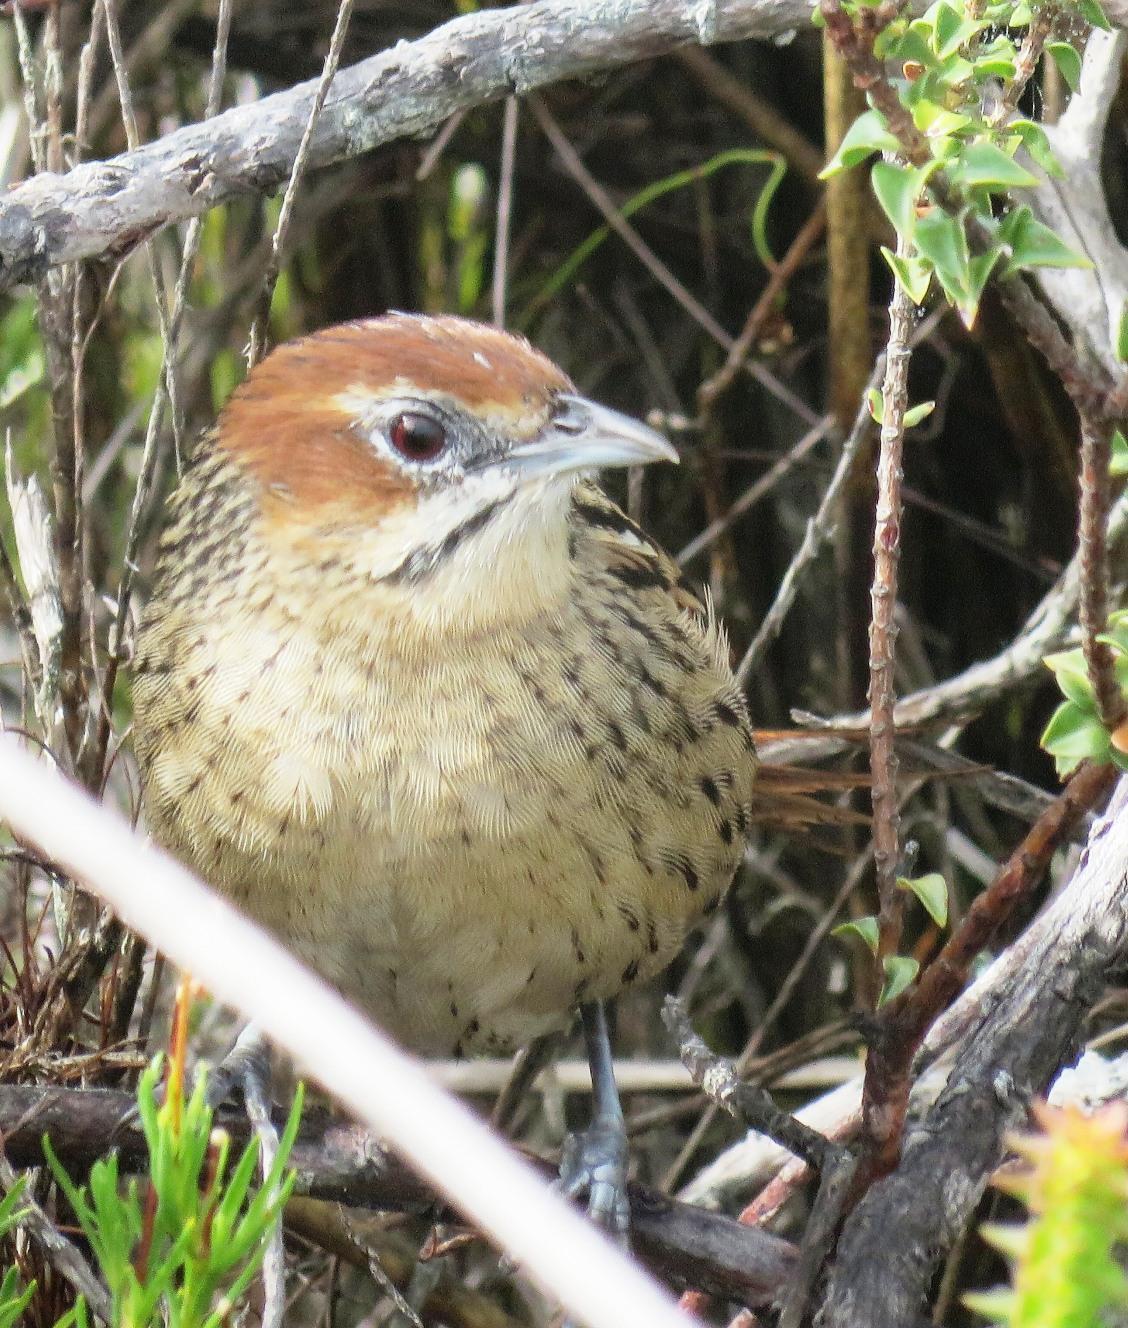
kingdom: Animalia
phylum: Chordata
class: Aves
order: Passeriformes
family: Macrosphenidae
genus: Sphenoeacus
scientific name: Sphenoeacus afer
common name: Cape grassbird
